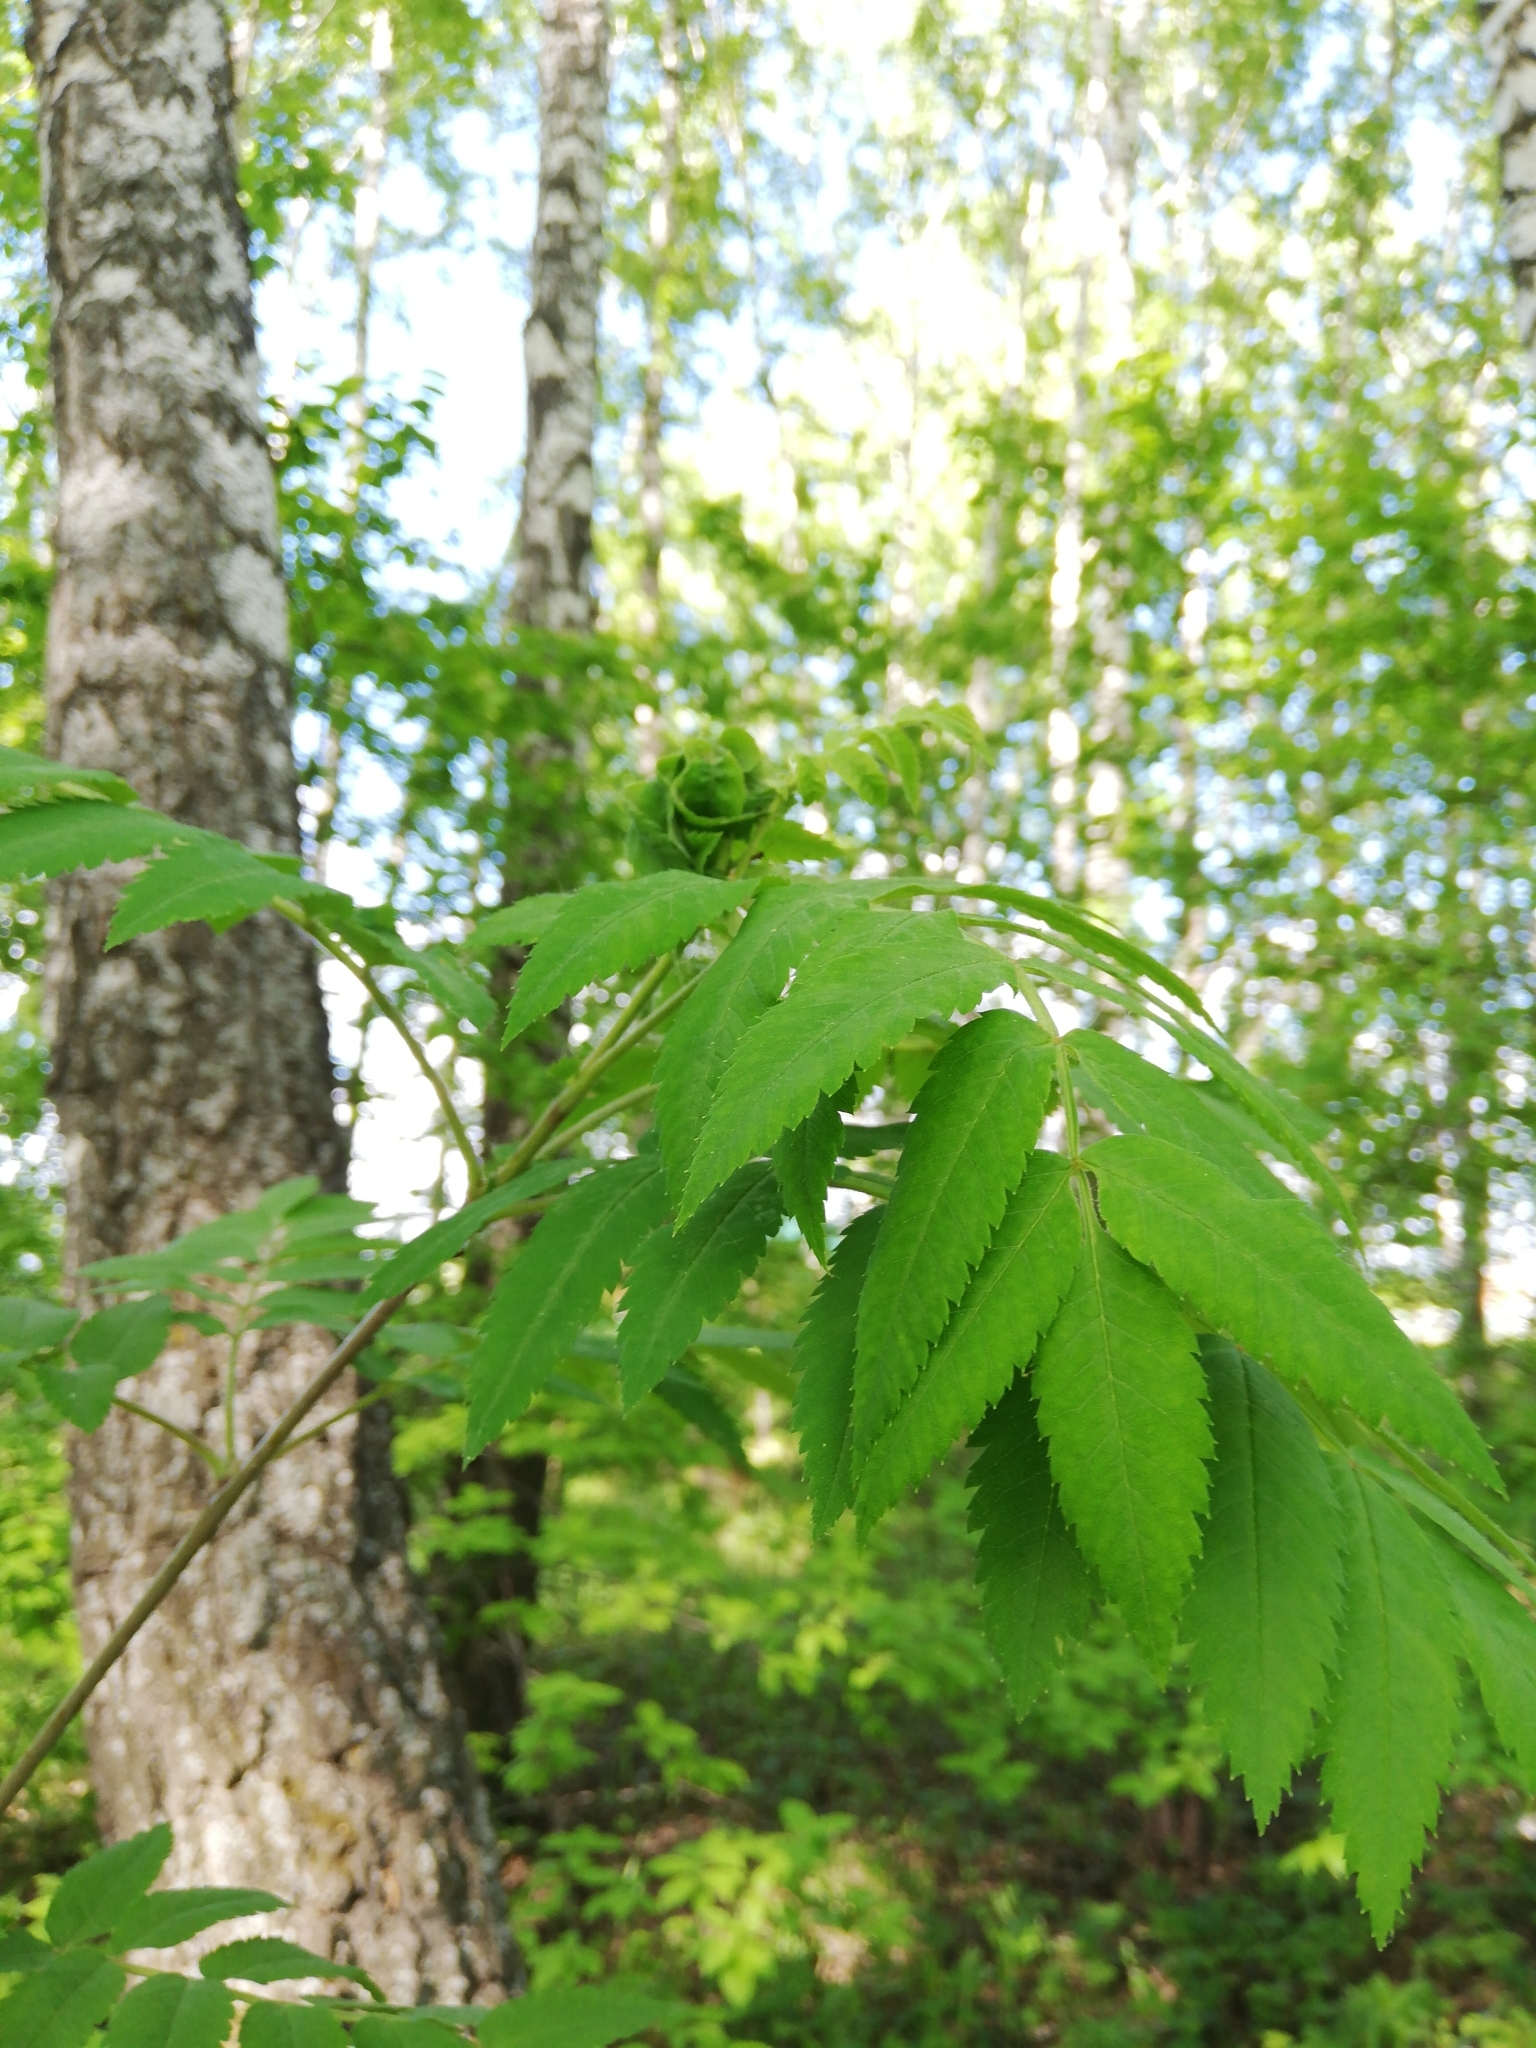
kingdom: Plantae
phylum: Tracheophyta
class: Magnoliopsida
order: Rosales
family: Rosaceae
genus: Sorbus
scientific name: Sorbus aucuparia
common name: Rowan
